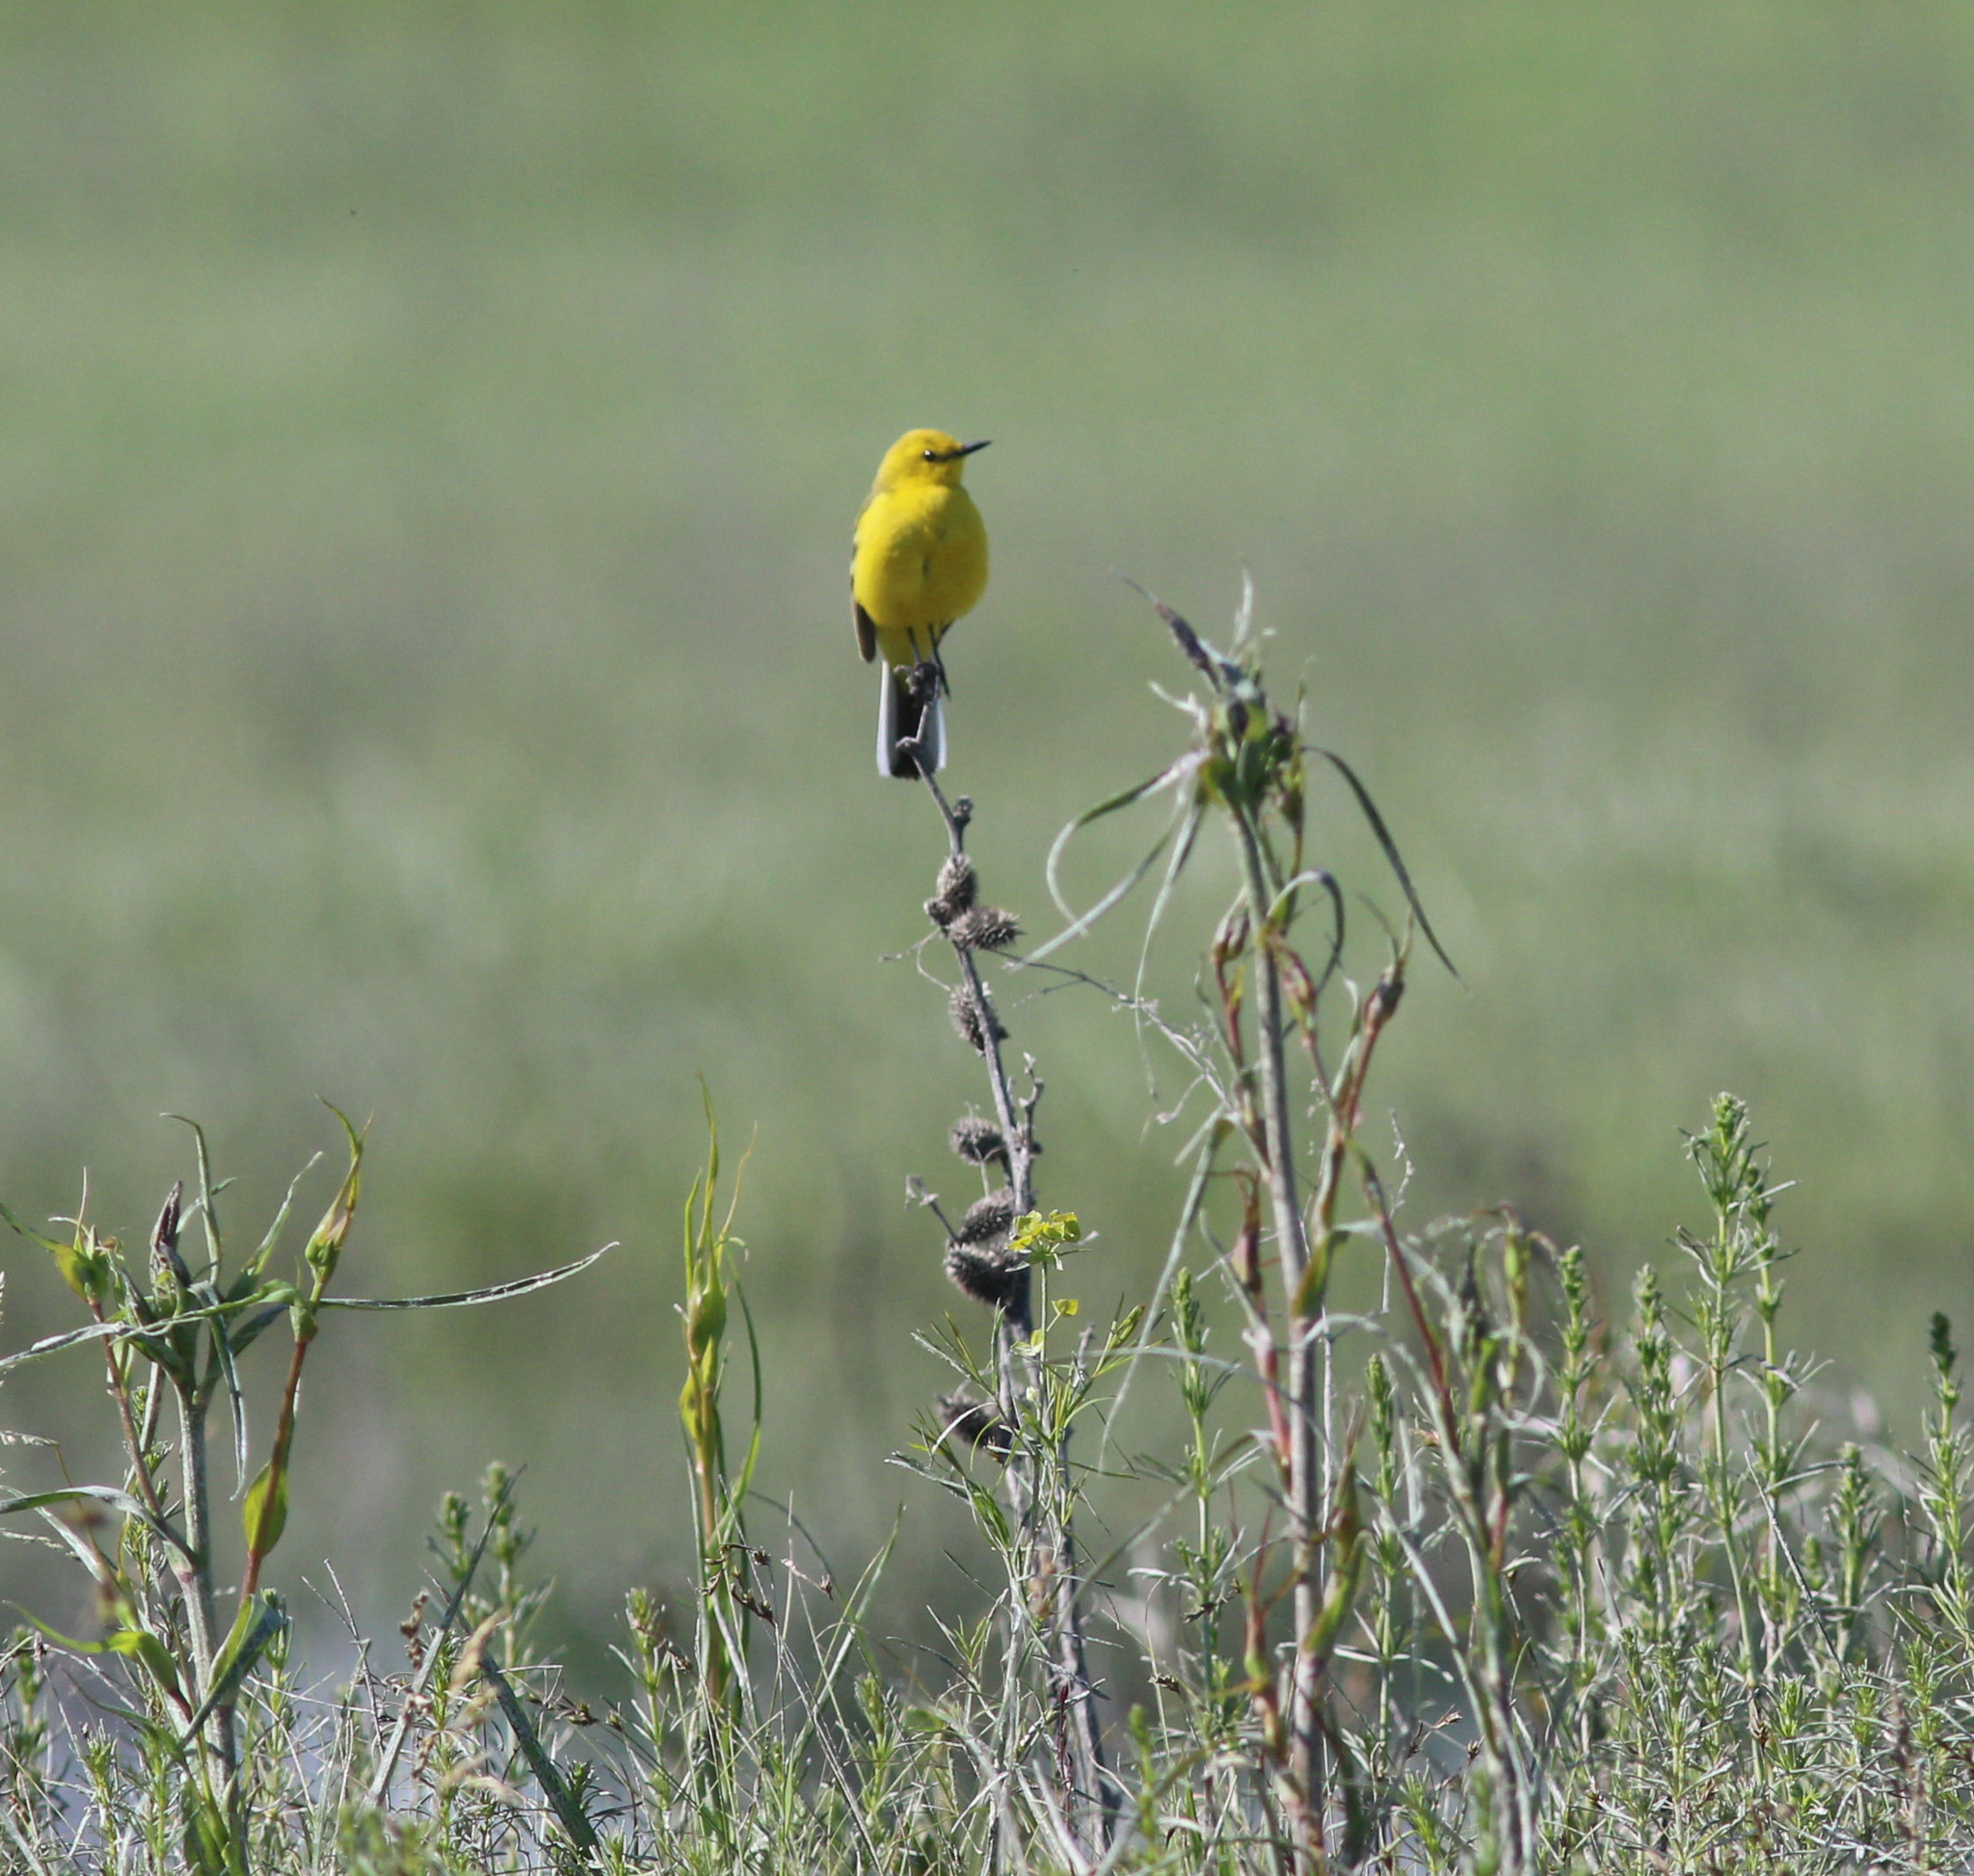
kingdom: Animalia
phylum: Chordata
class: Aves
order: Passeriformes
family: Motacillidae
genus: Motacilla
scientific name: Motacilla flava
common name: Western yellow wagtail
